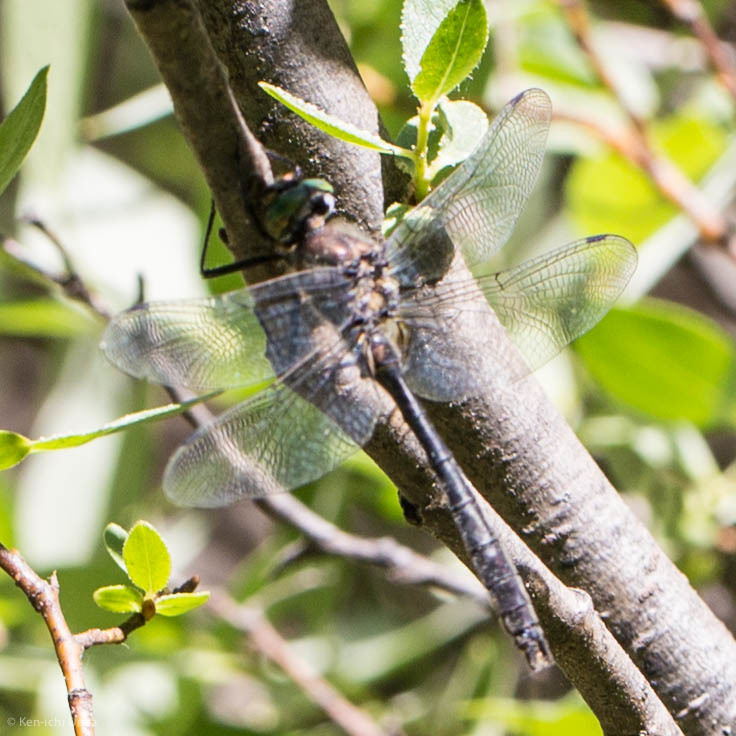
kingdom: Animalia
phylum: Arthropoda
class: Insecta
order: Odonata
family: Corduliidae
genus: Cordulia
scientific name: Cordulia shurtleffii
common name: American emerald
